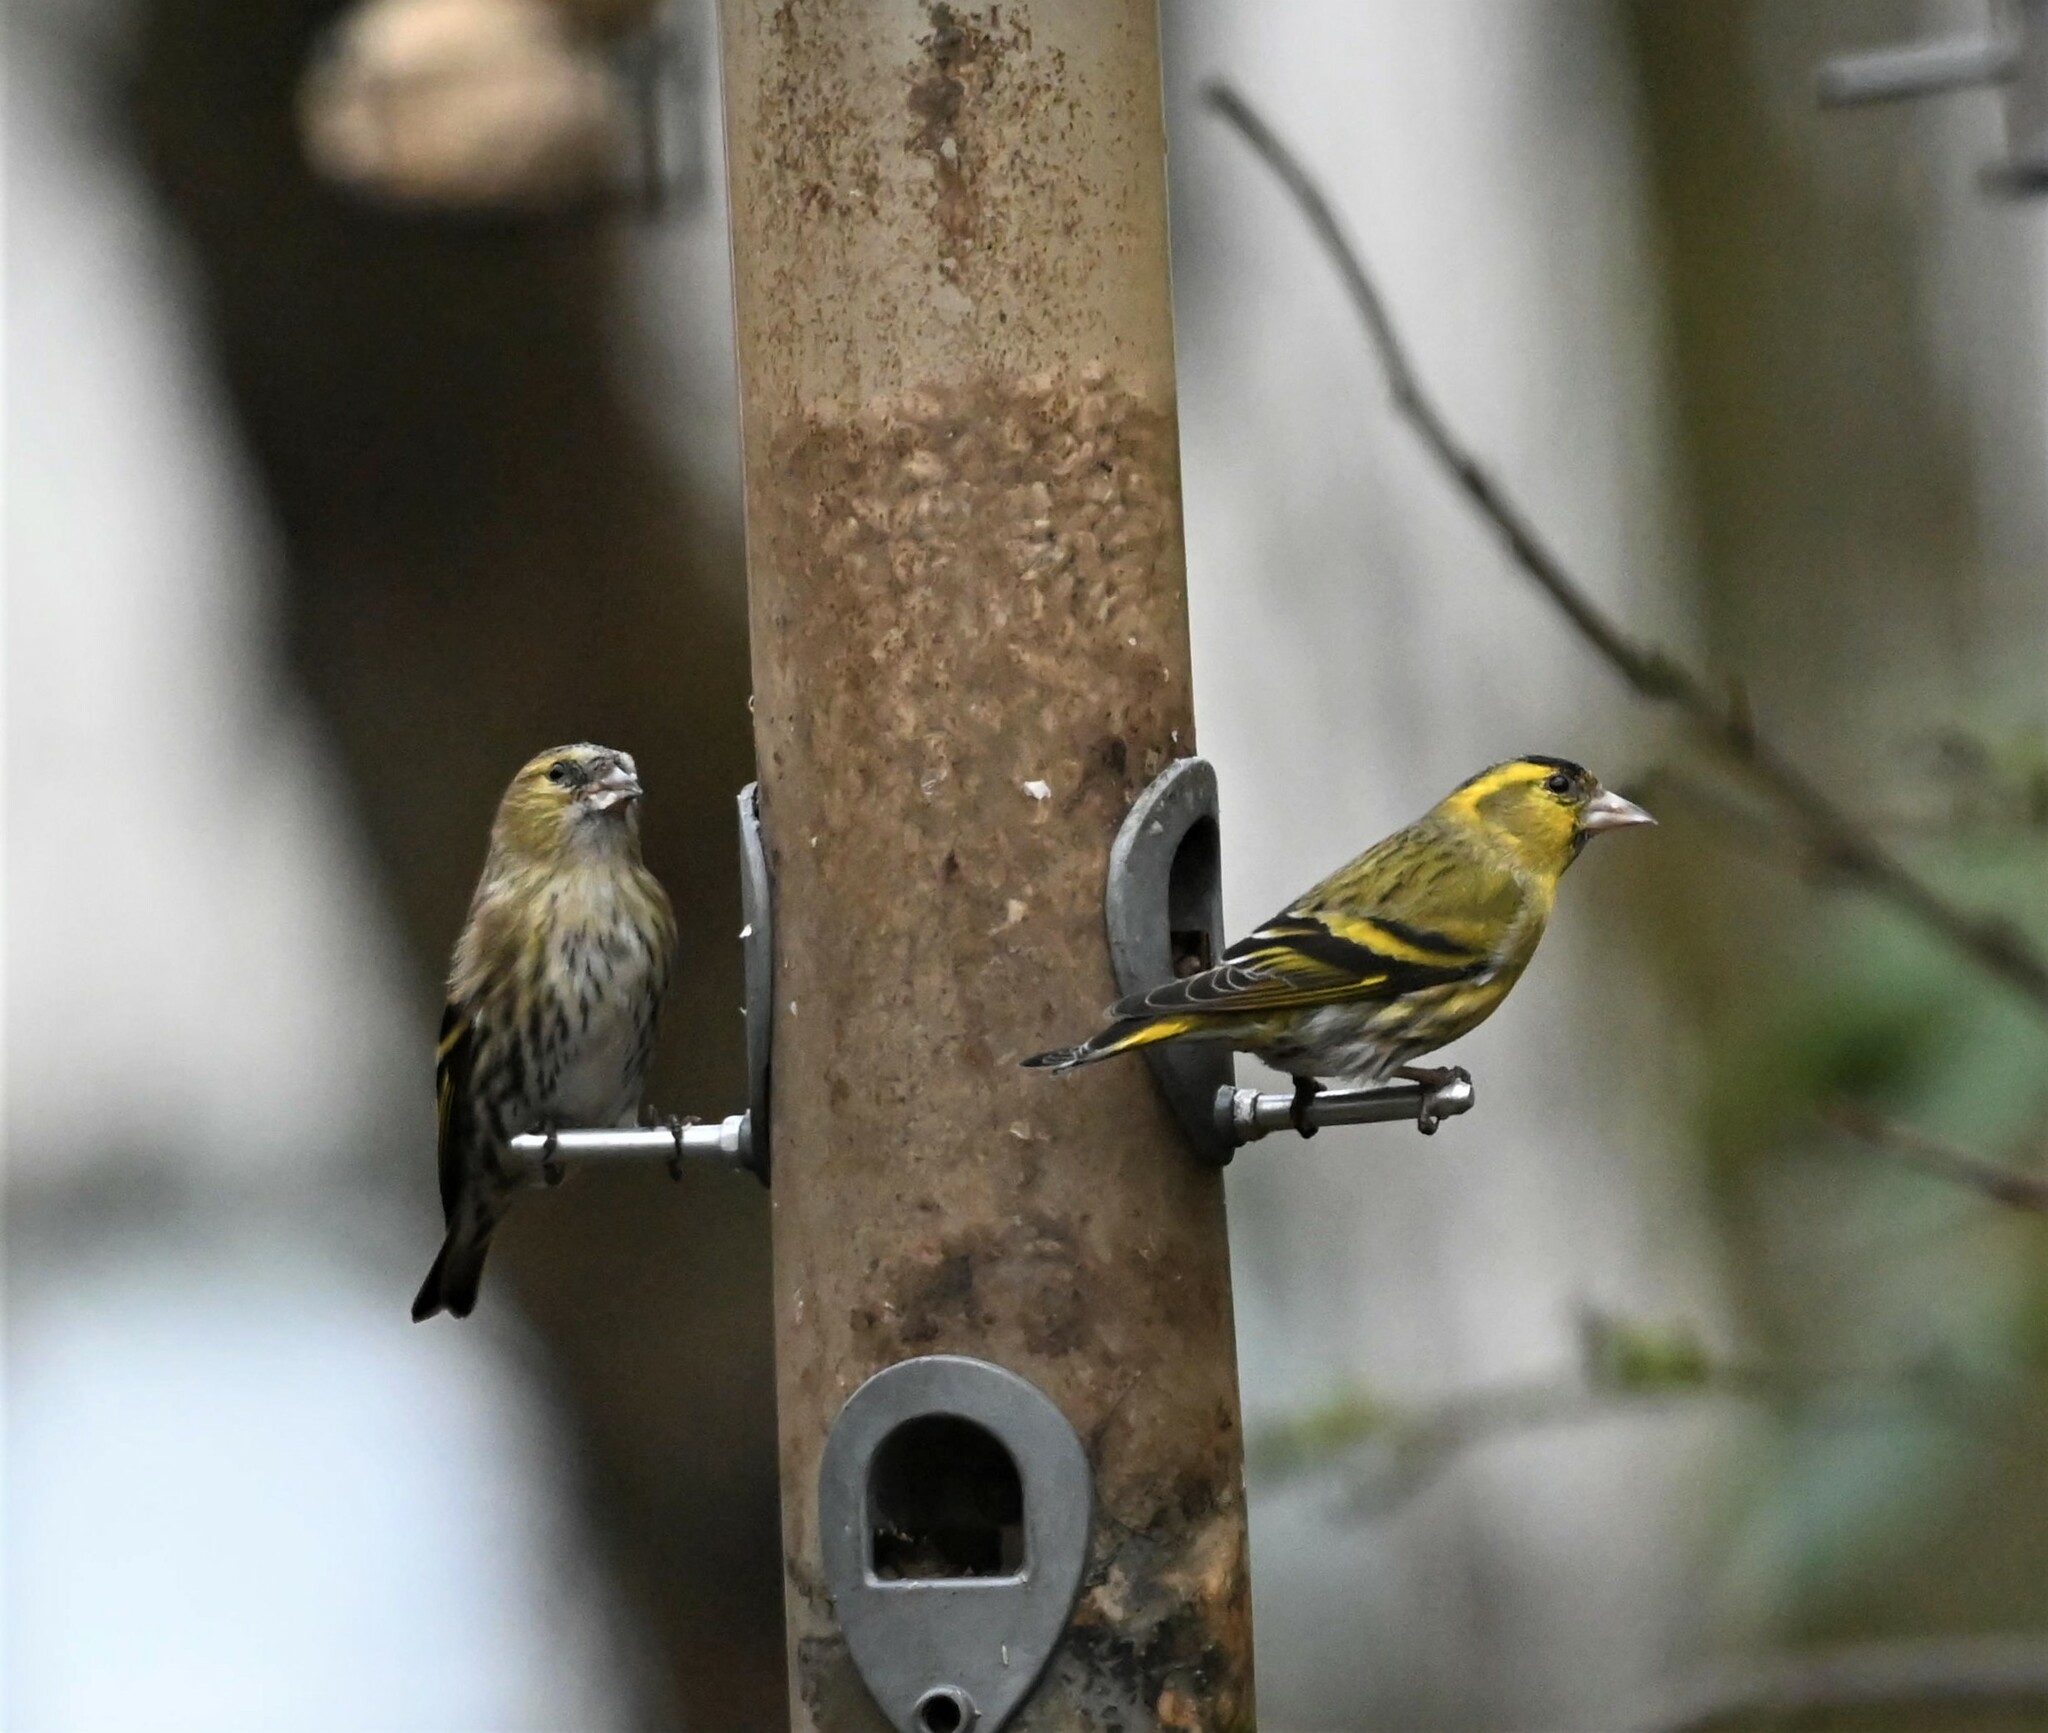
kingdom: Animalia
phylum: Chordata
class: Aves
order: Passeriformes
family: Fringillidae
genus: Spinus
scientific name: Spinus spinus
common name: Eurasian siskin
